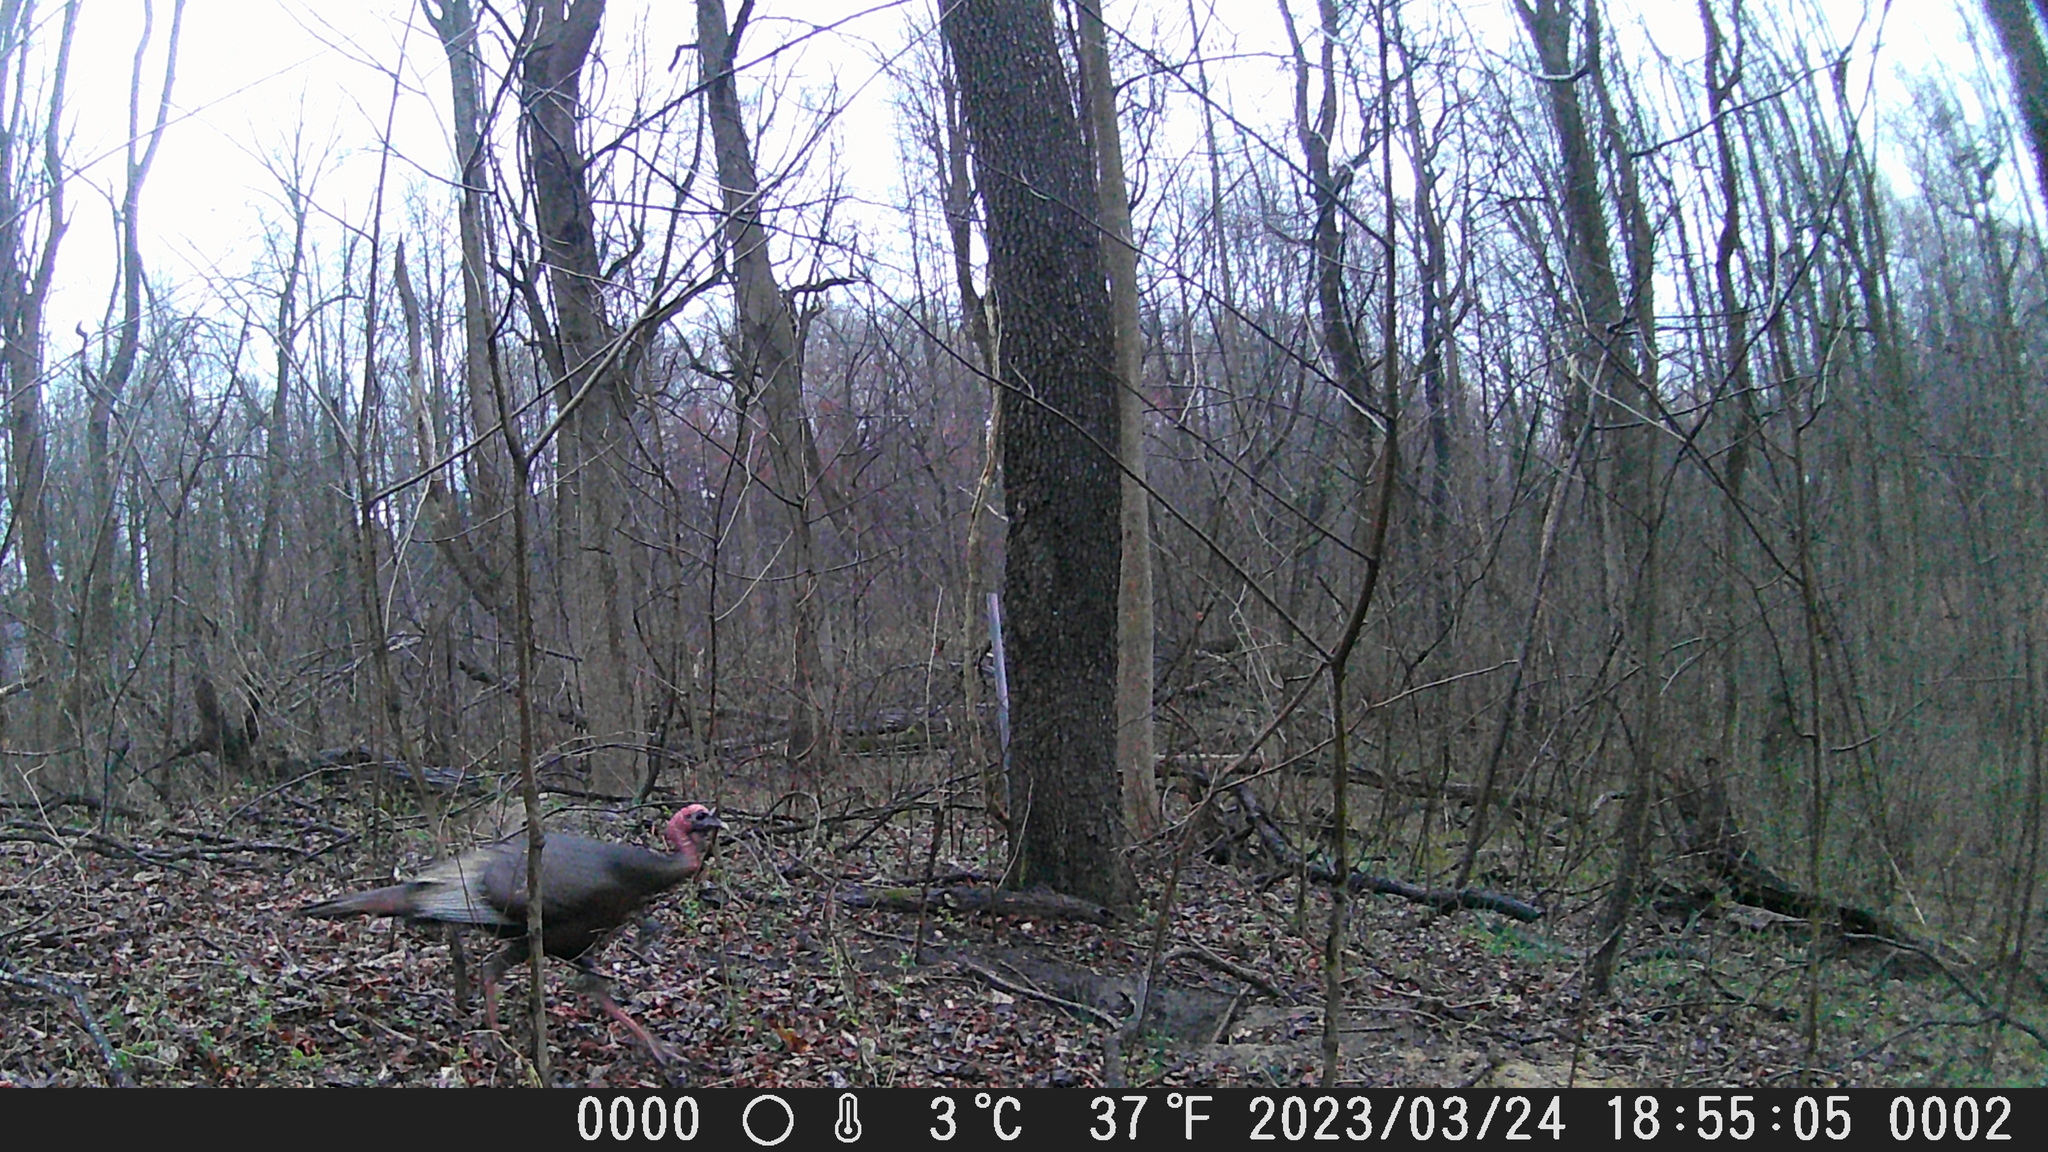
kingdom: Animalia
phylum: Chordata
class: Aves
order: Galliformes
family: Phasianidae
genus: Meleagris
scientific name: Meleagris gallopavo
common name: Wild turkey
